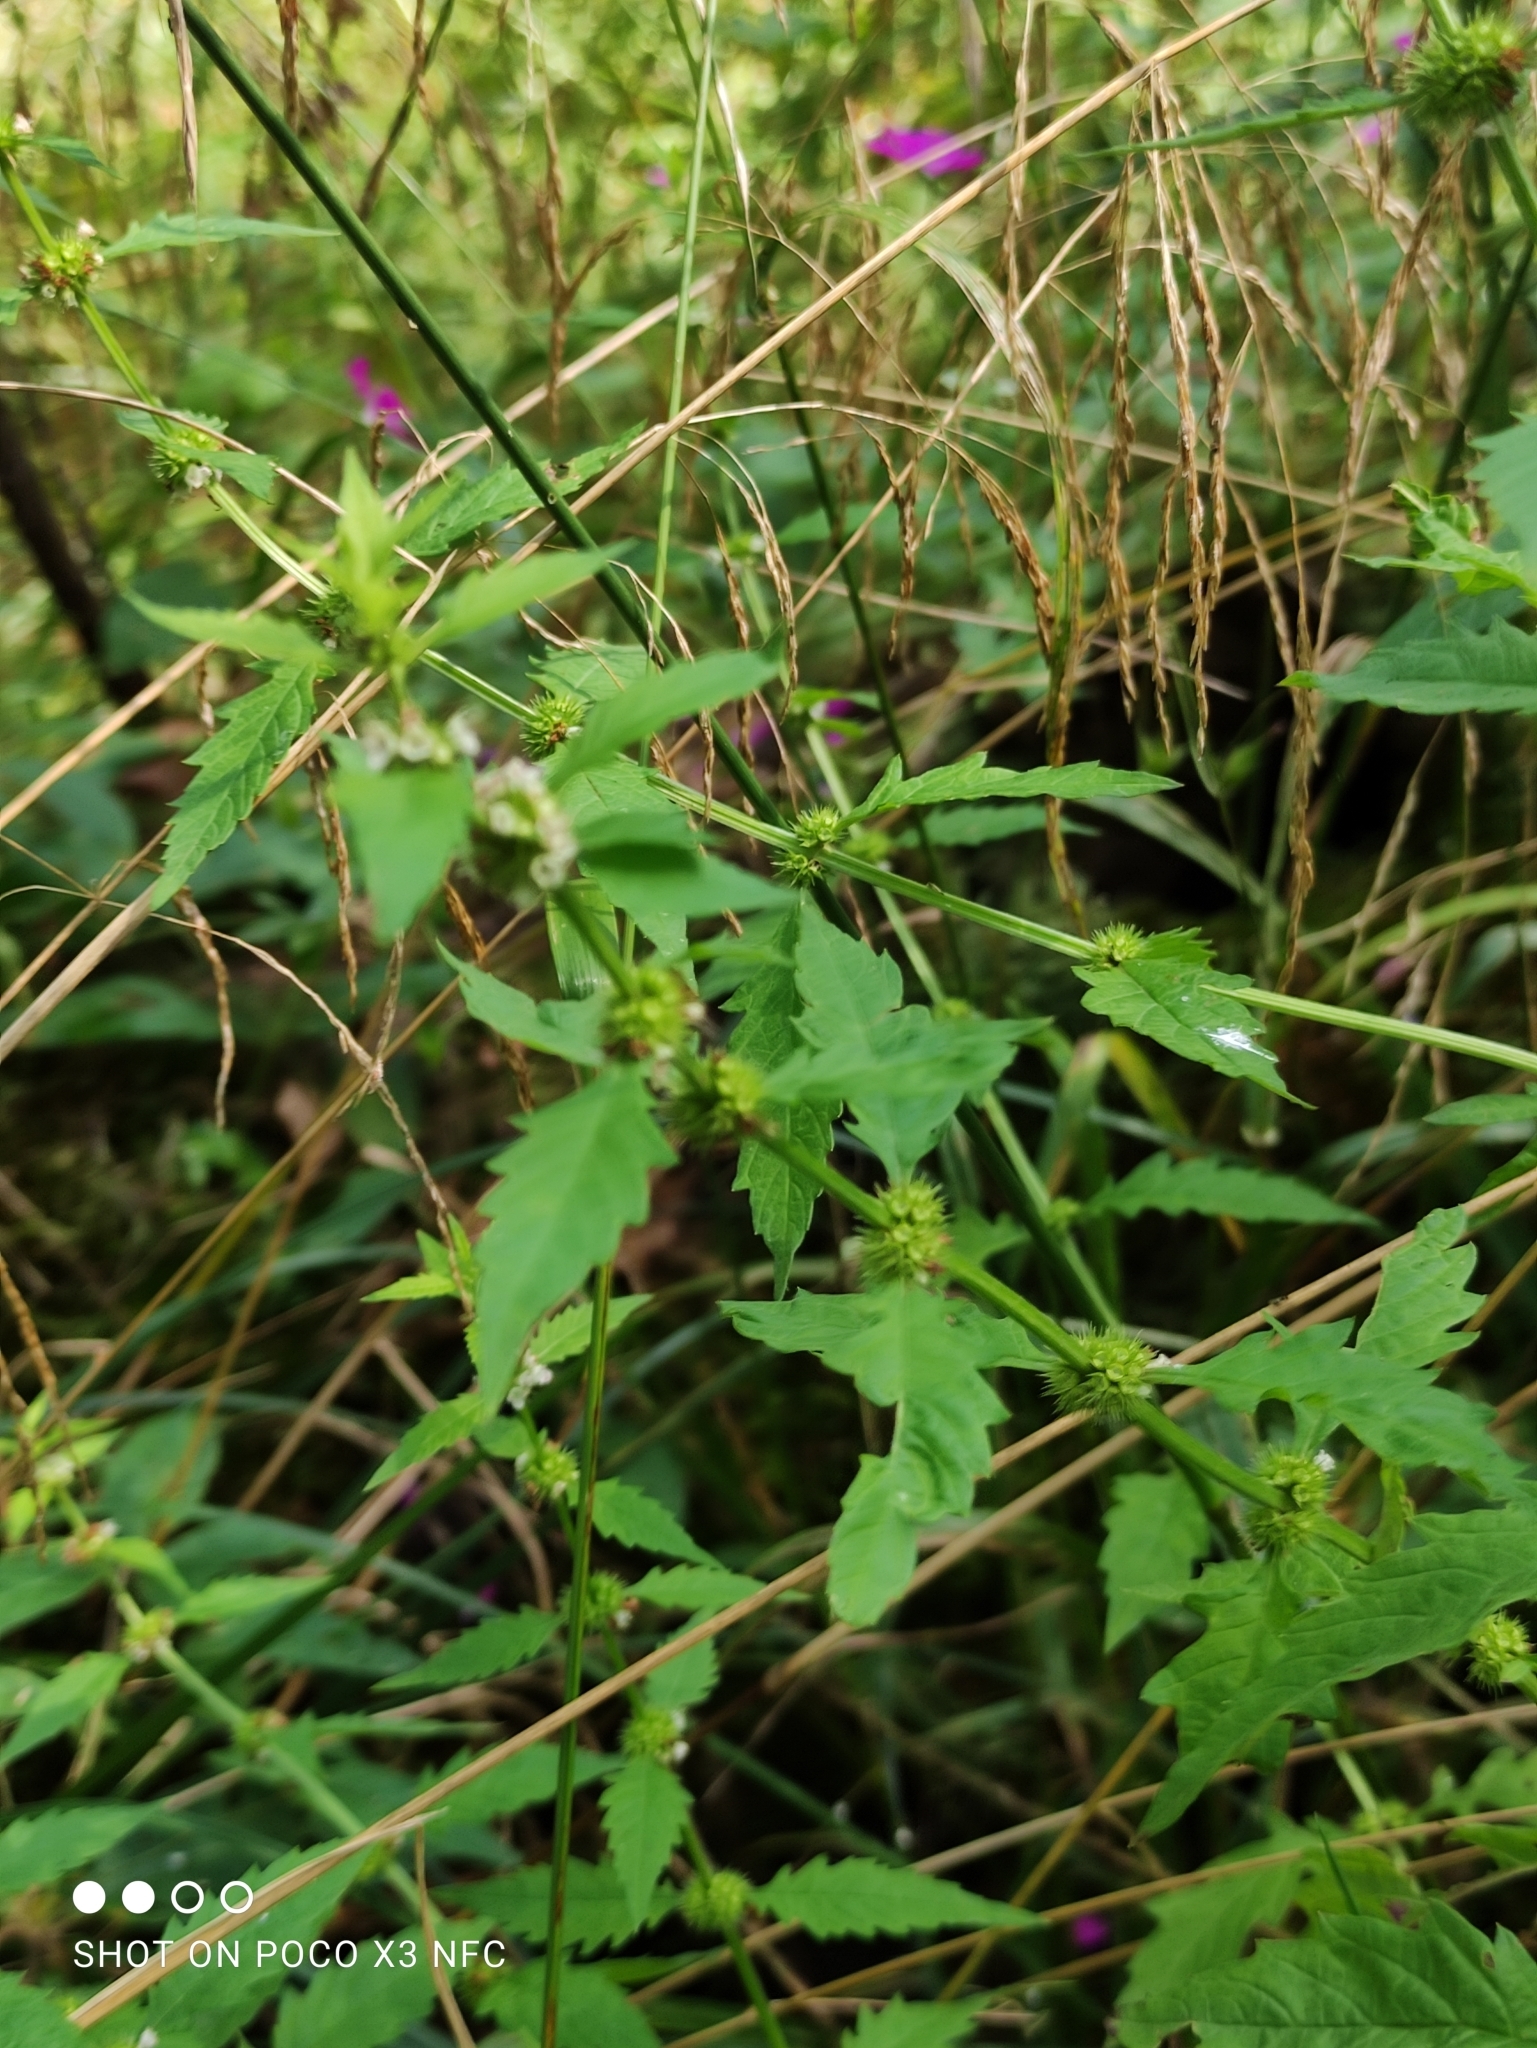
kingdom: Plantae
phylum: Tracheophyta
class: Magnoliopsida
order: Lamiales
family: Lamiaceae
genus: Lycopus
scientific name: Lycopus europaeus
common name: European bugleweed
